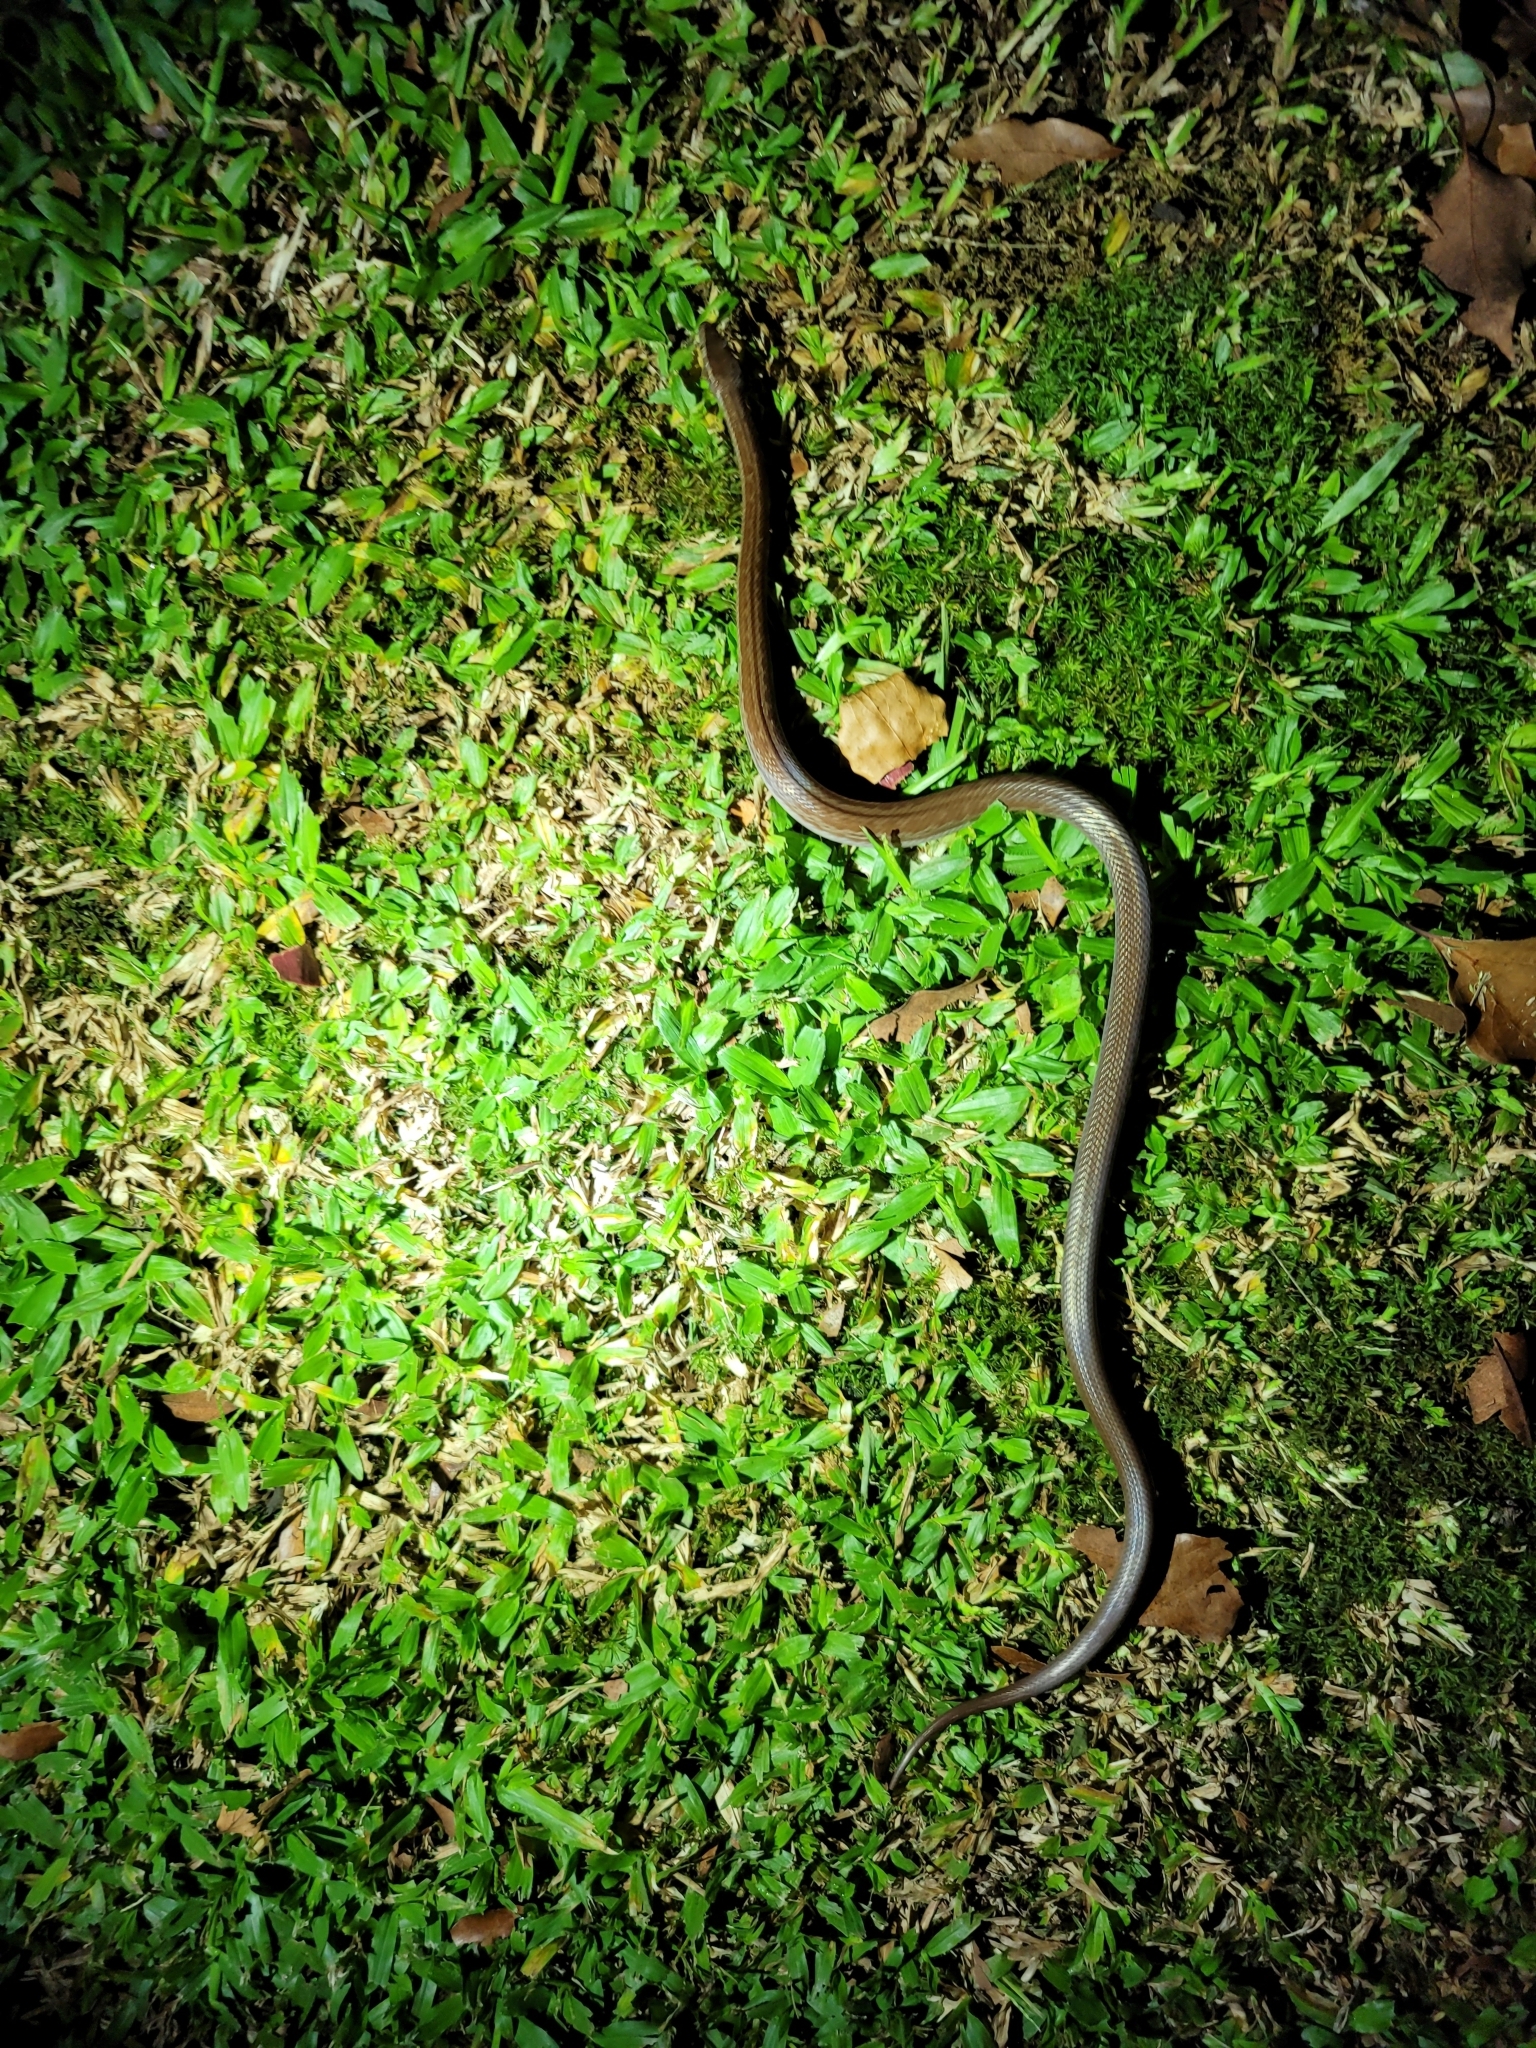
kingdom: Animalia
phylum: Chordata
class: Squamata
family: Lamprophiidae
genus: Boaedon
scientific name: Boaedon capensis
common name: Brown house snake
